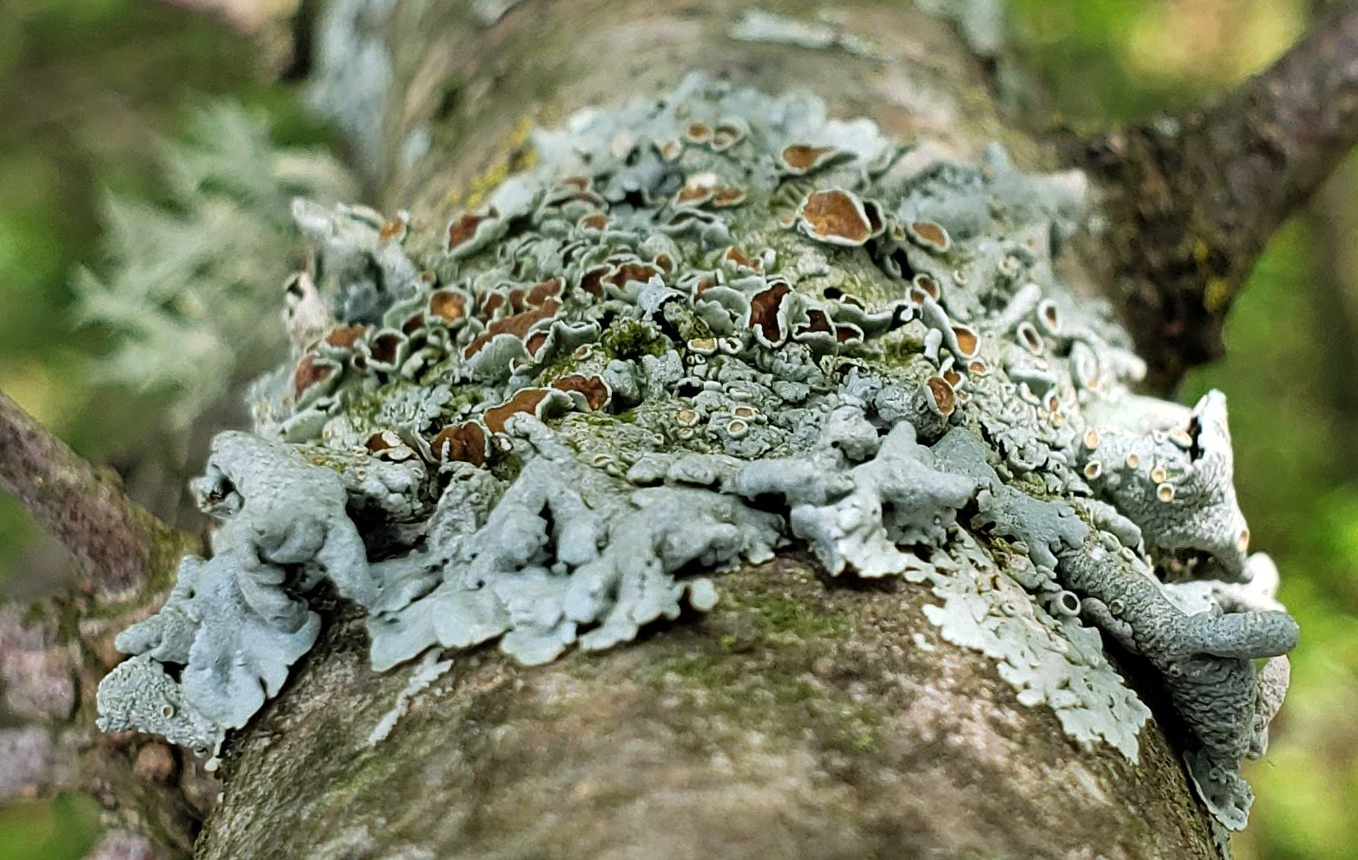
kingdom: Fungi
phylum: Ascomycota
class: Lecanoromycetes
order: Lecanorales
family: Parmeliaceae
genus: Myelochroa
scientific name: Myelochroa galbina
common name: Smooth axil-bristle lichen
